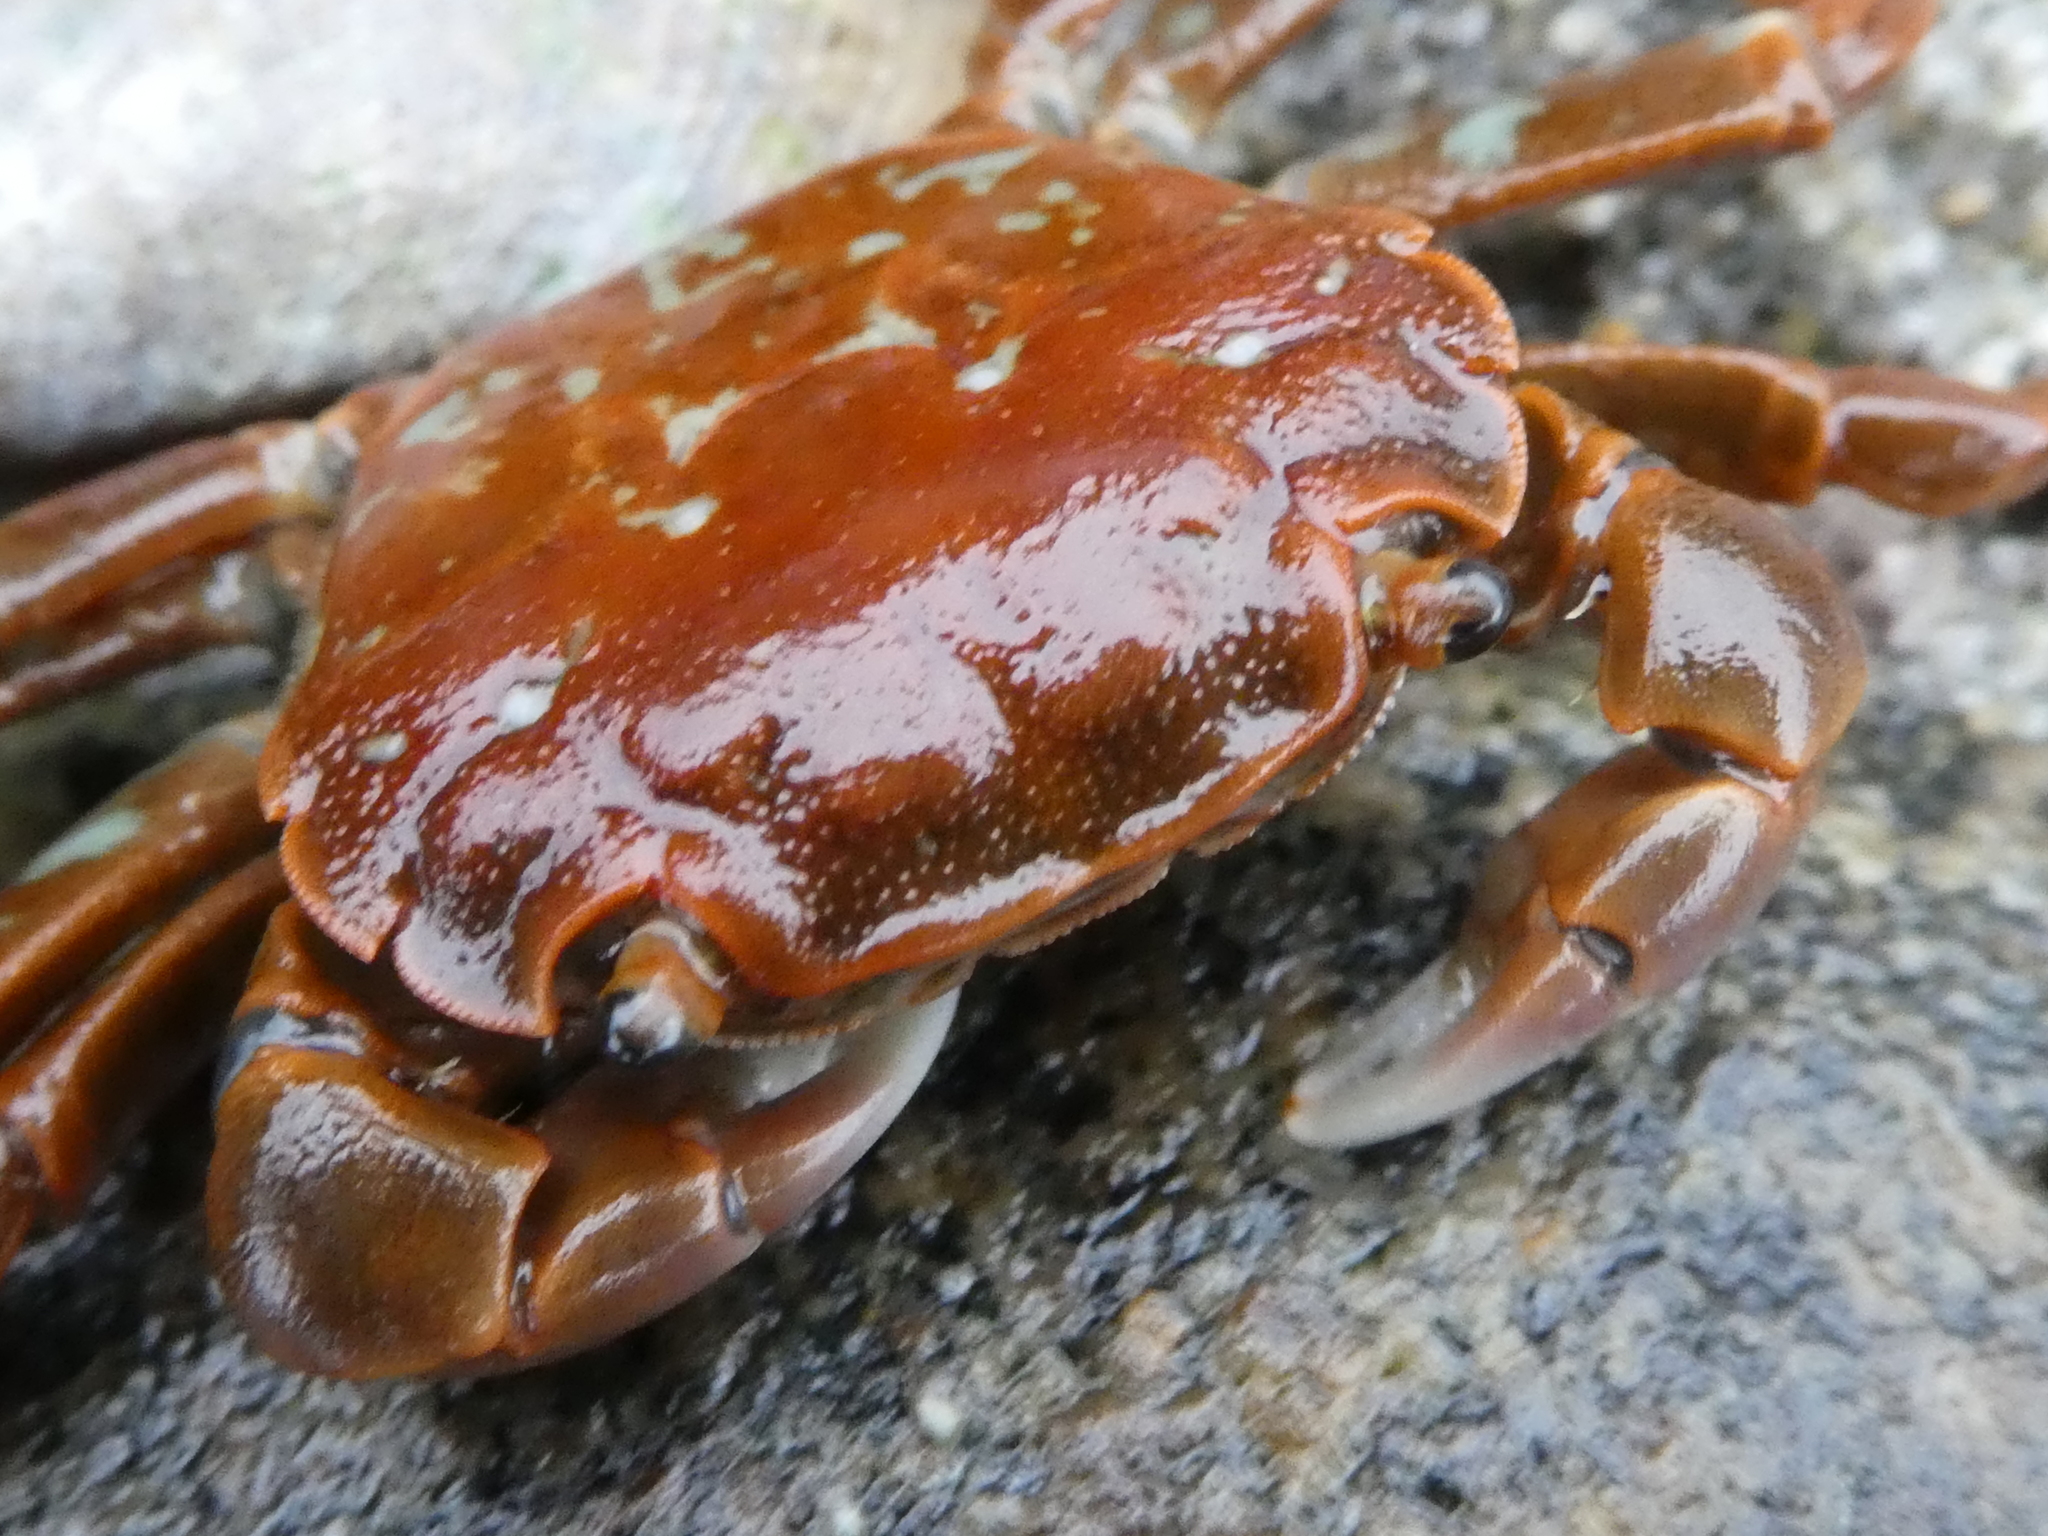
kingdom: Animalia
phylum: Arthropoda
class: Malacostraca
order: Decapoda
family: Varunidae
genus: Hemigrapsus
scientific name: Hemigrapsus nudus
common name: Purple shore crab
